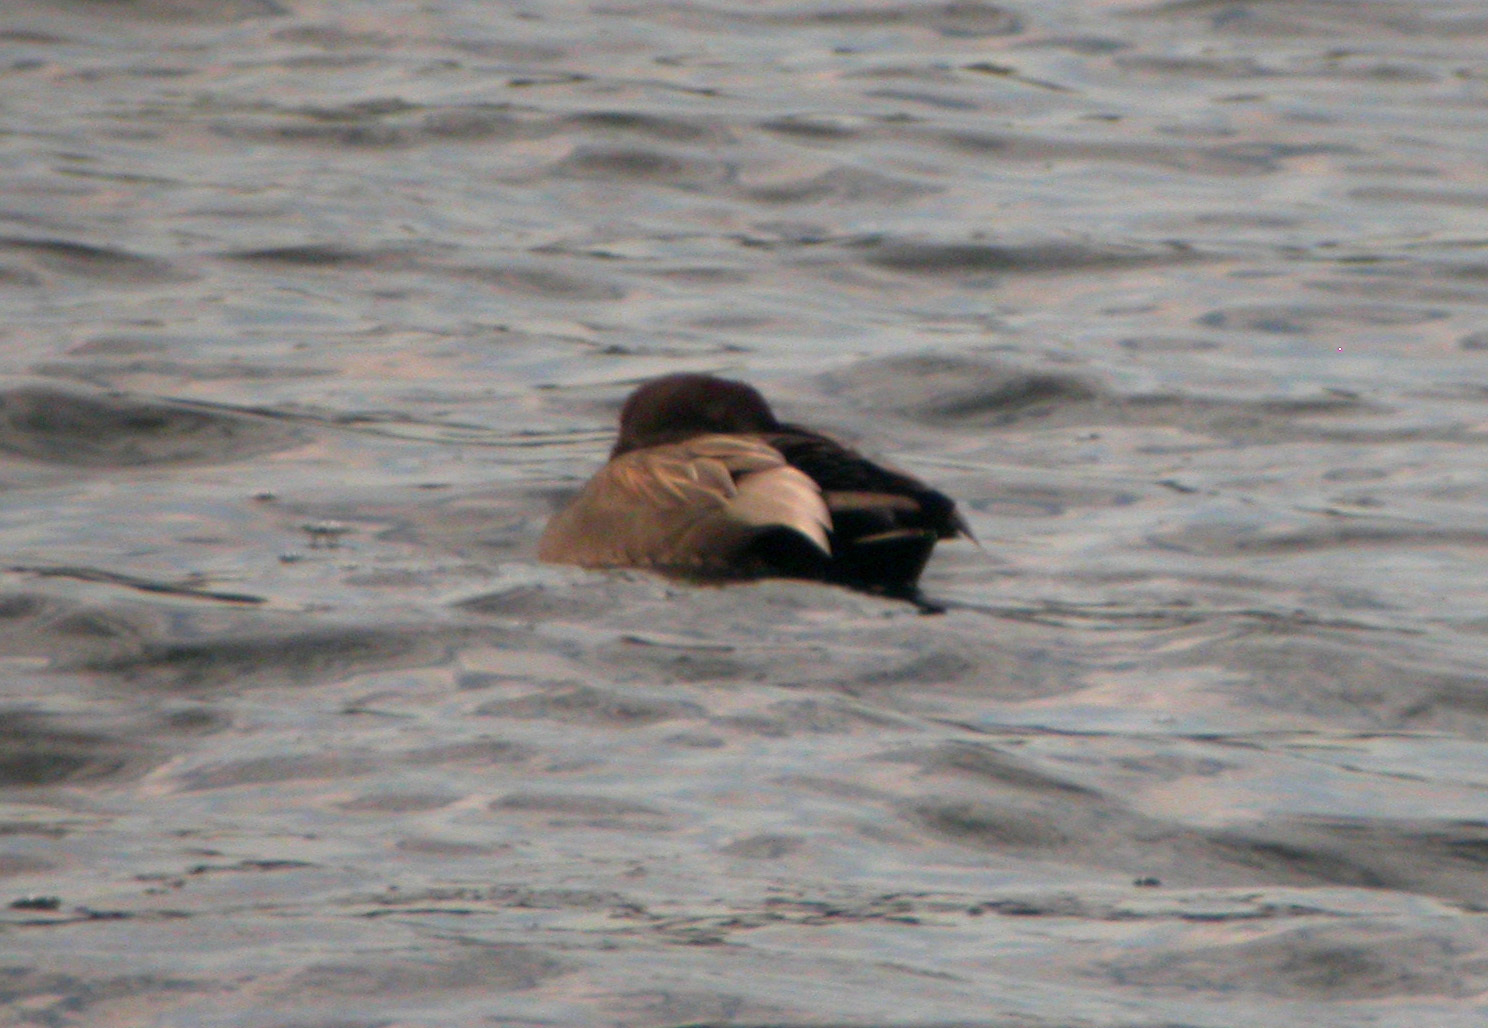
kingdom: Animalia
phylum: Chordata
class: Aves
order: Anseriformes
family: Anatidae
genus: Mareca
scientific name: Mareca strepera
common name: Gadwall
